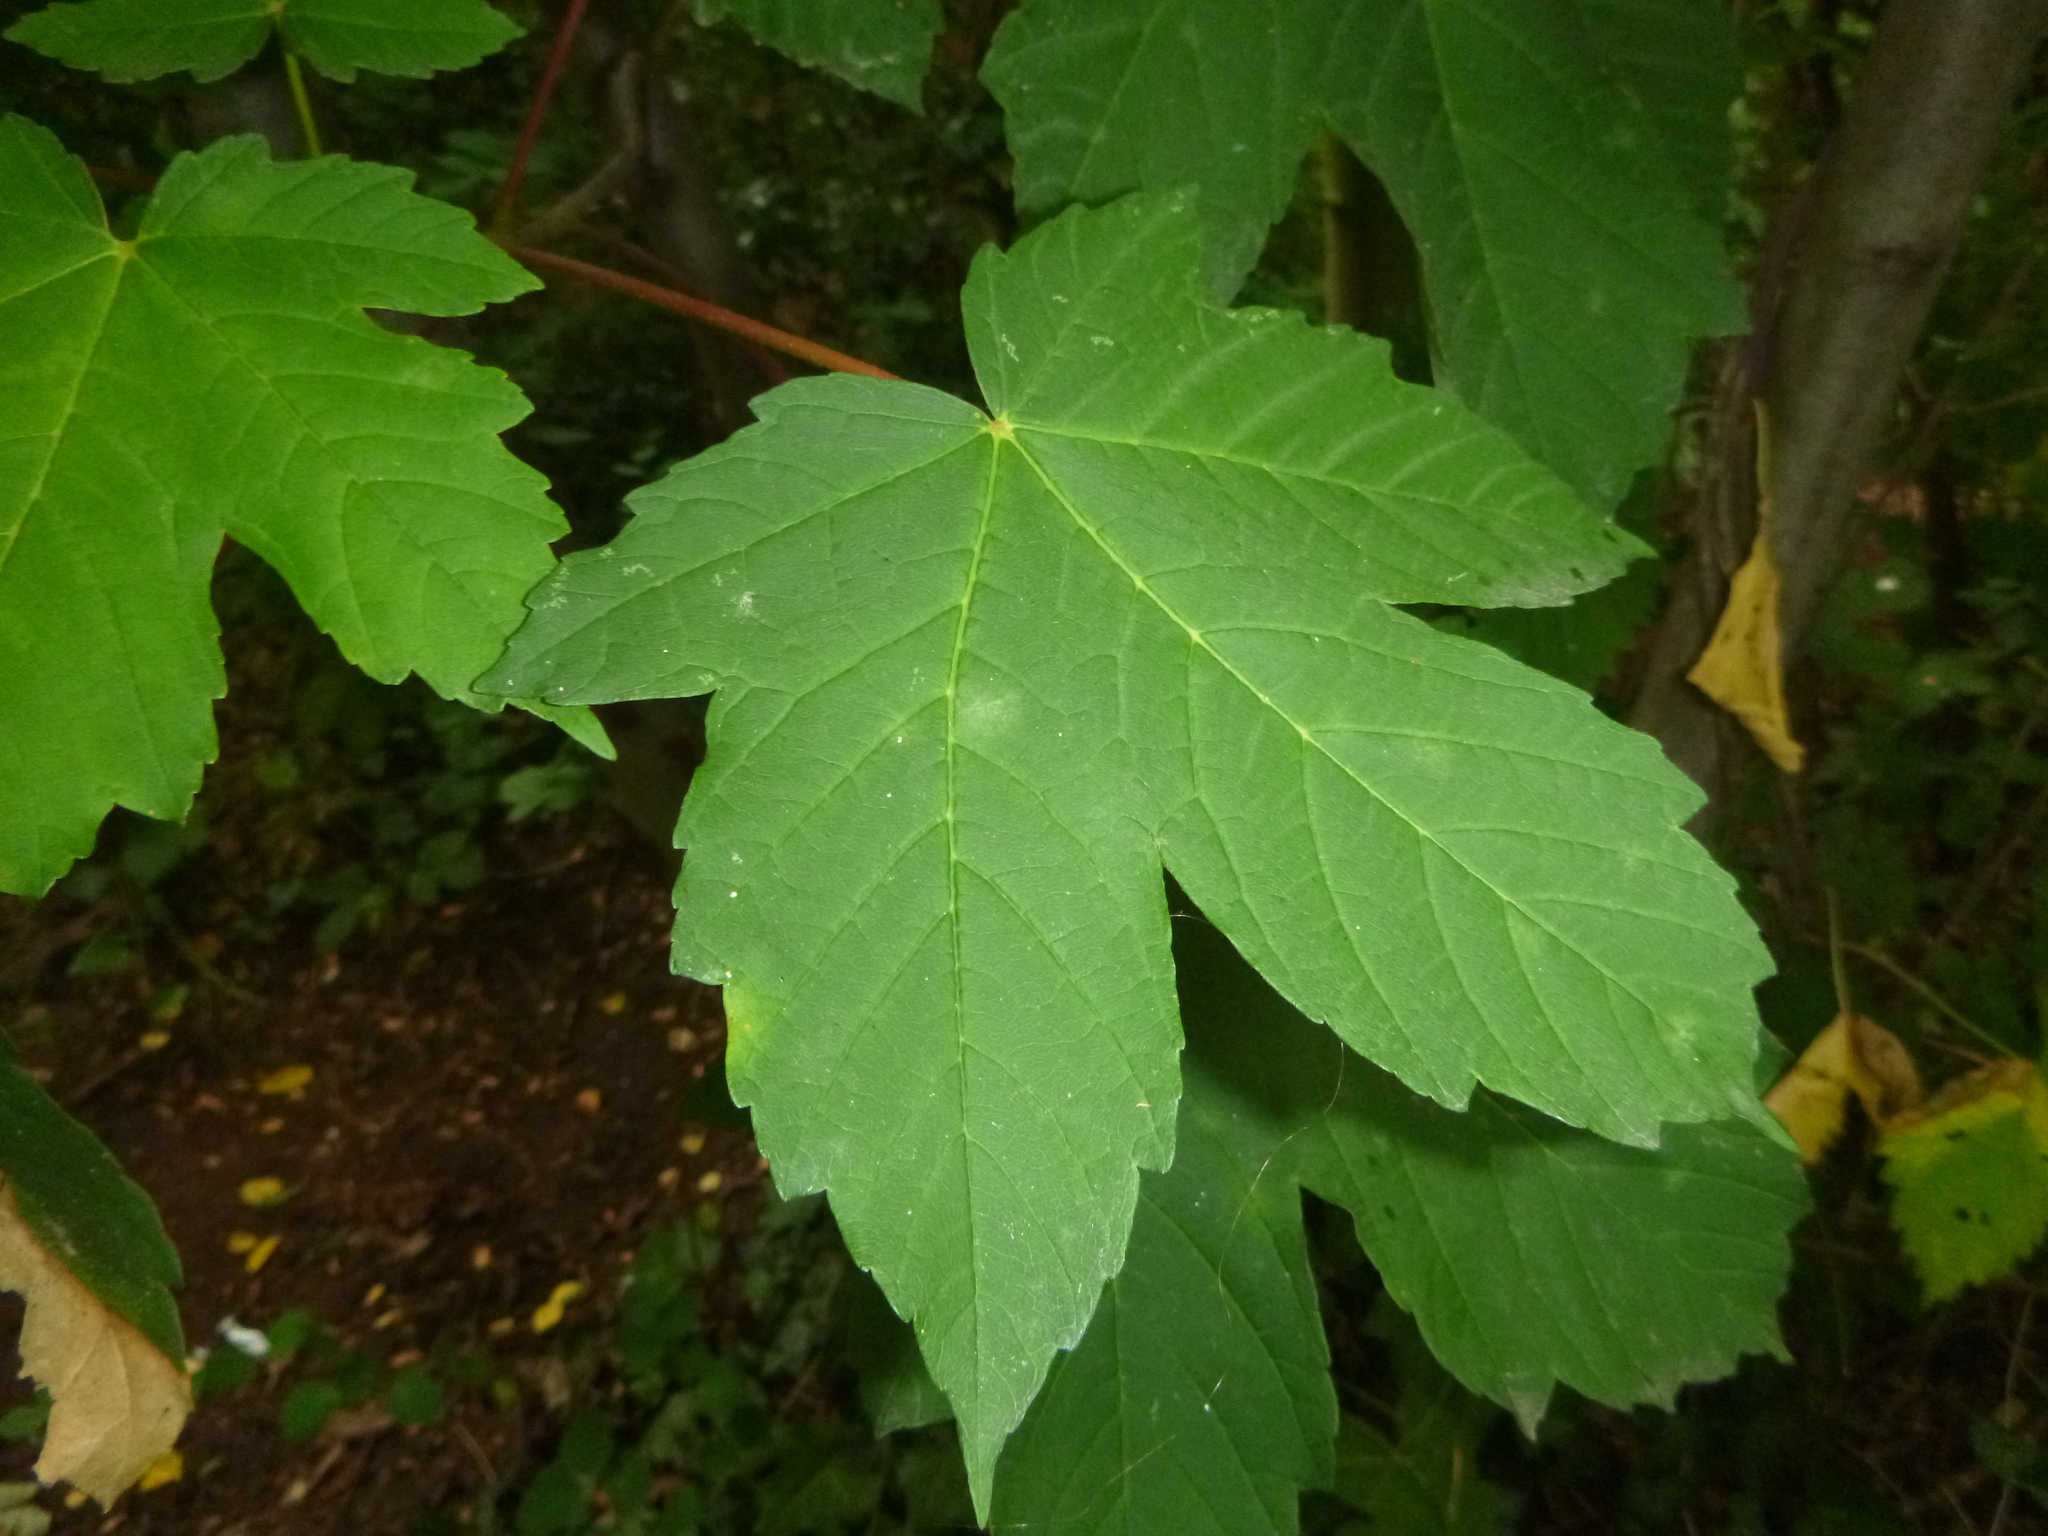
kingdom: Plantae
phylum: Tracheophyta
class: Magnoliopsida
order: Sapindales
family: Sapindaceae
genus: Acer
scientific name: Acer pseudoplatanus
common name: Sycamore
